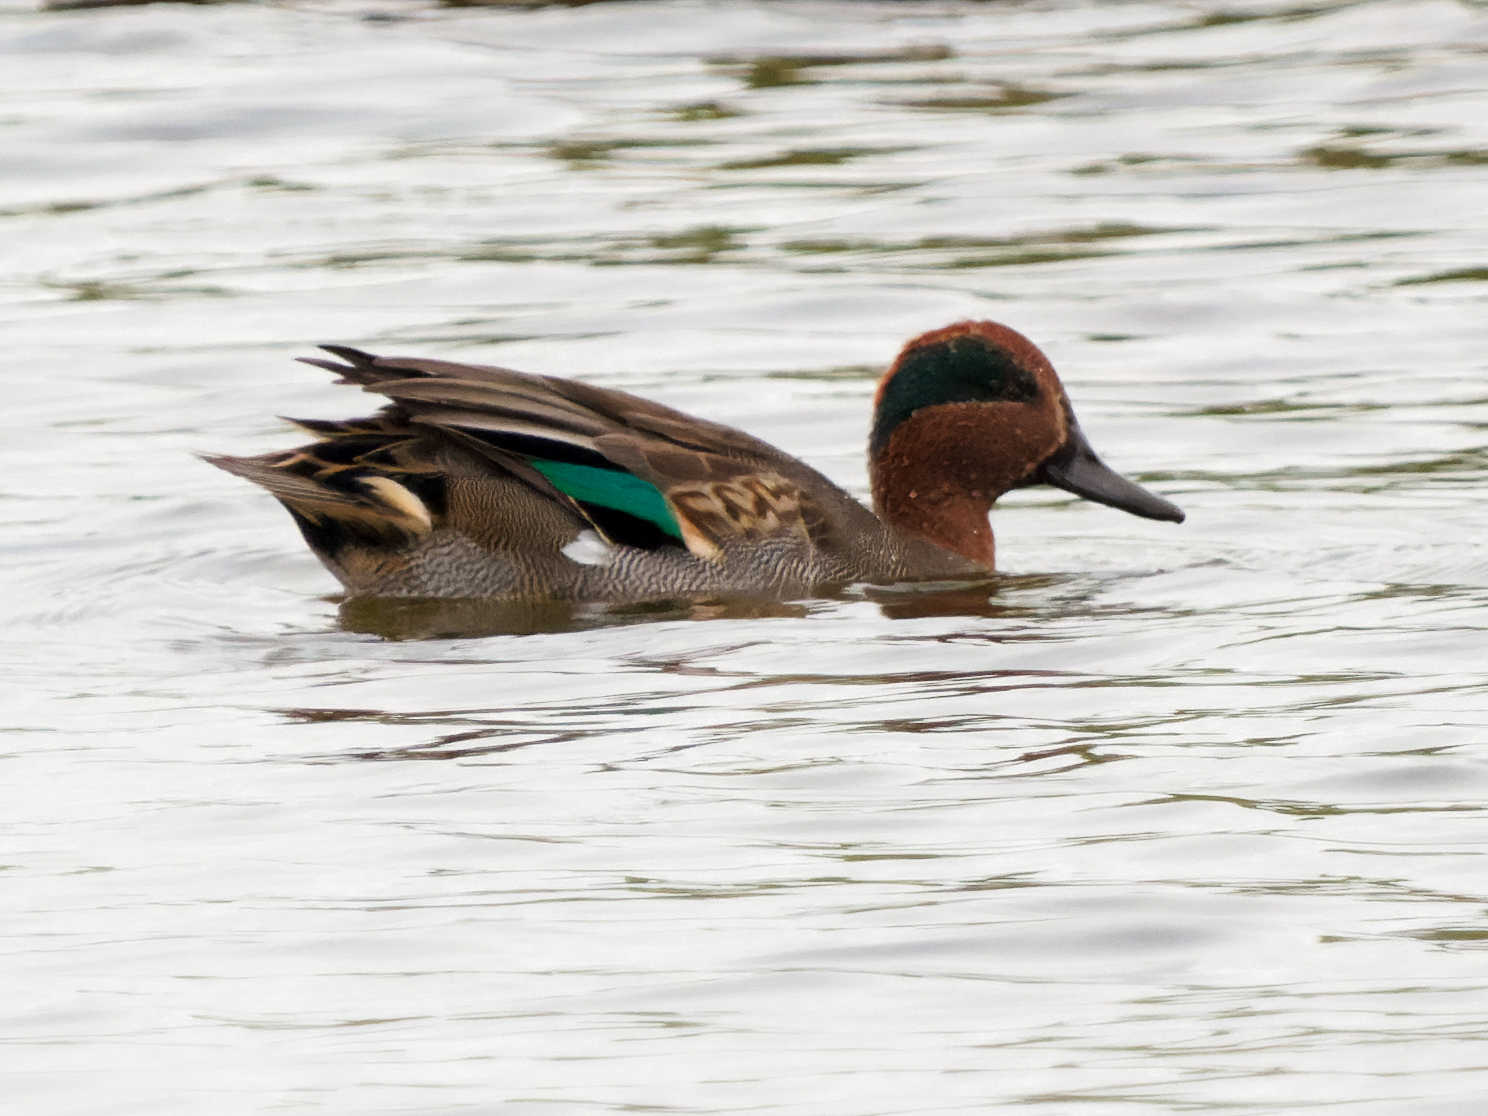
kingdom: Animalia
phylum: Chordata
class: Aves
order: Anseriformes
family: Anatidae
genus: Anas
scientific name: Anas crecca
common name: Eurasian teal
